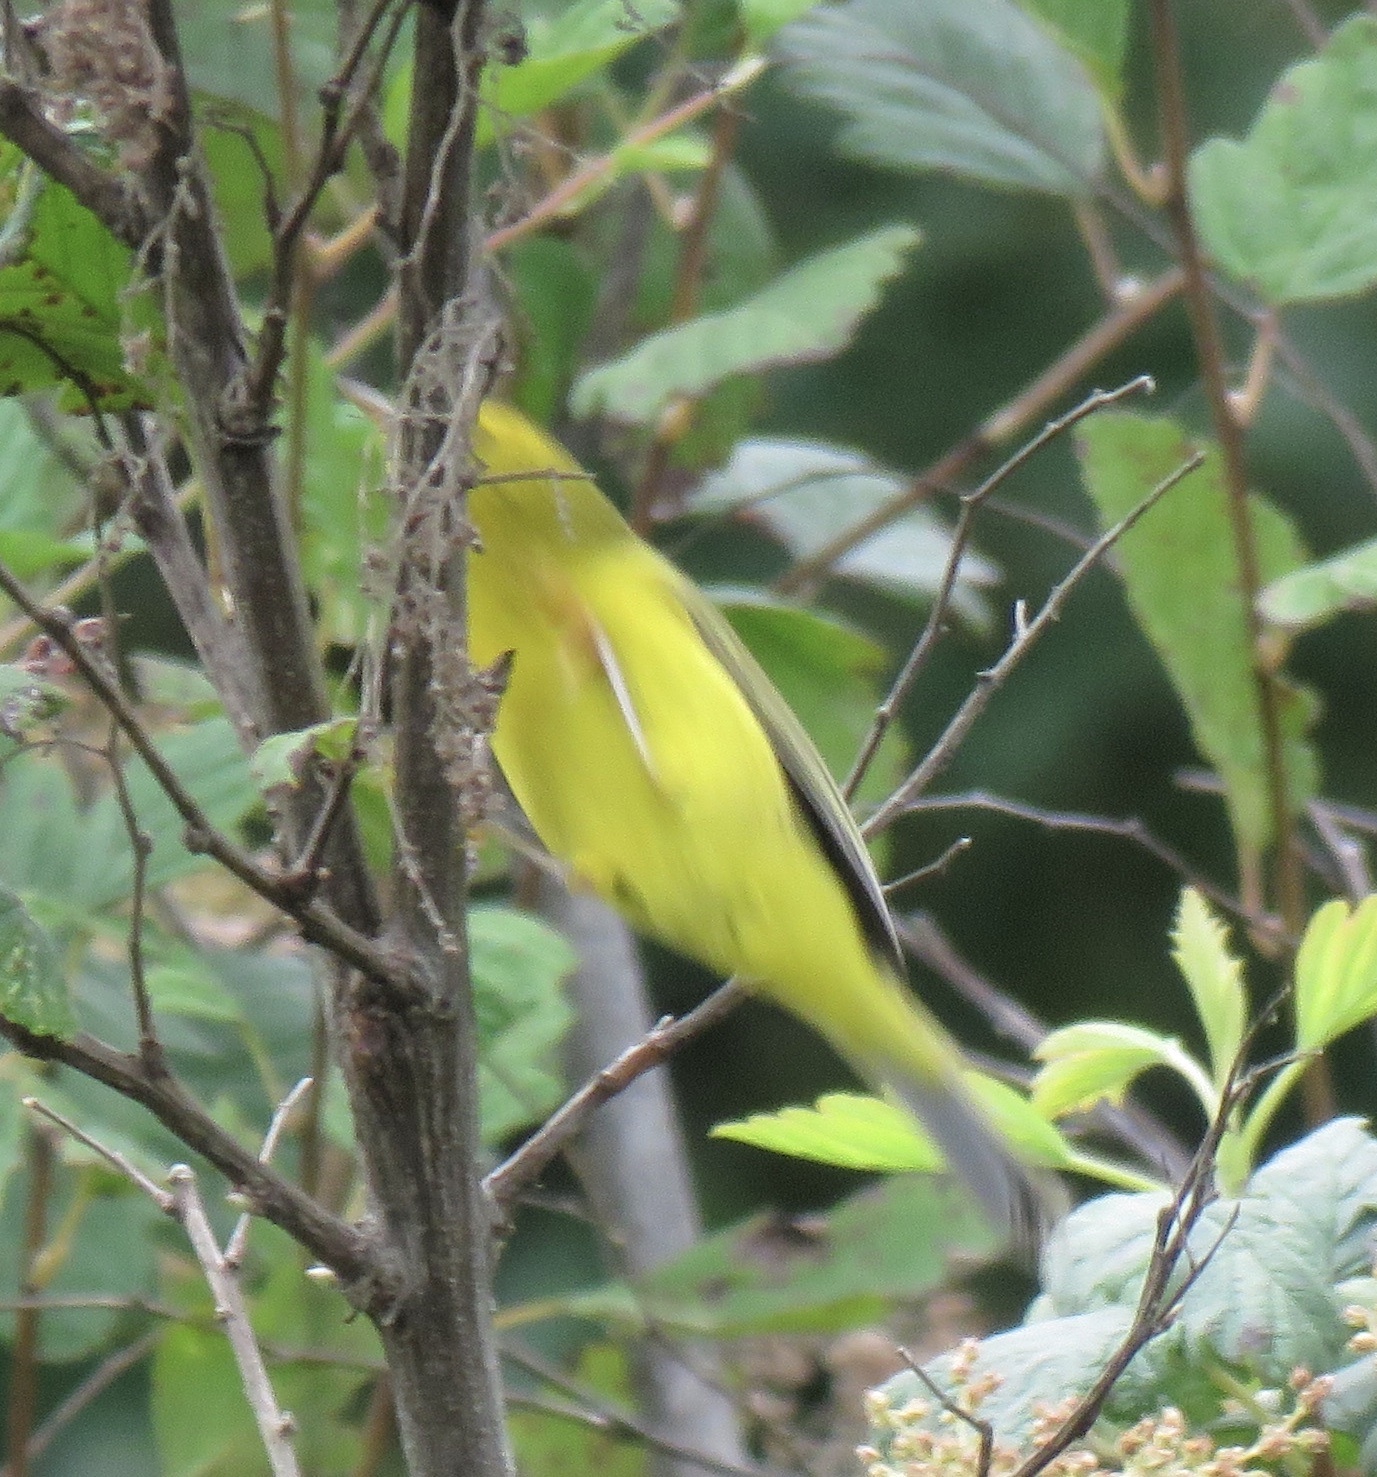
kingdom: Animalia
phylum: Chordata
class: Aves
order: Passeriformes
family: Parulidae
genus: Cardellina
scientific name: Cardellina pusilla
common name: Wilson's warbler
